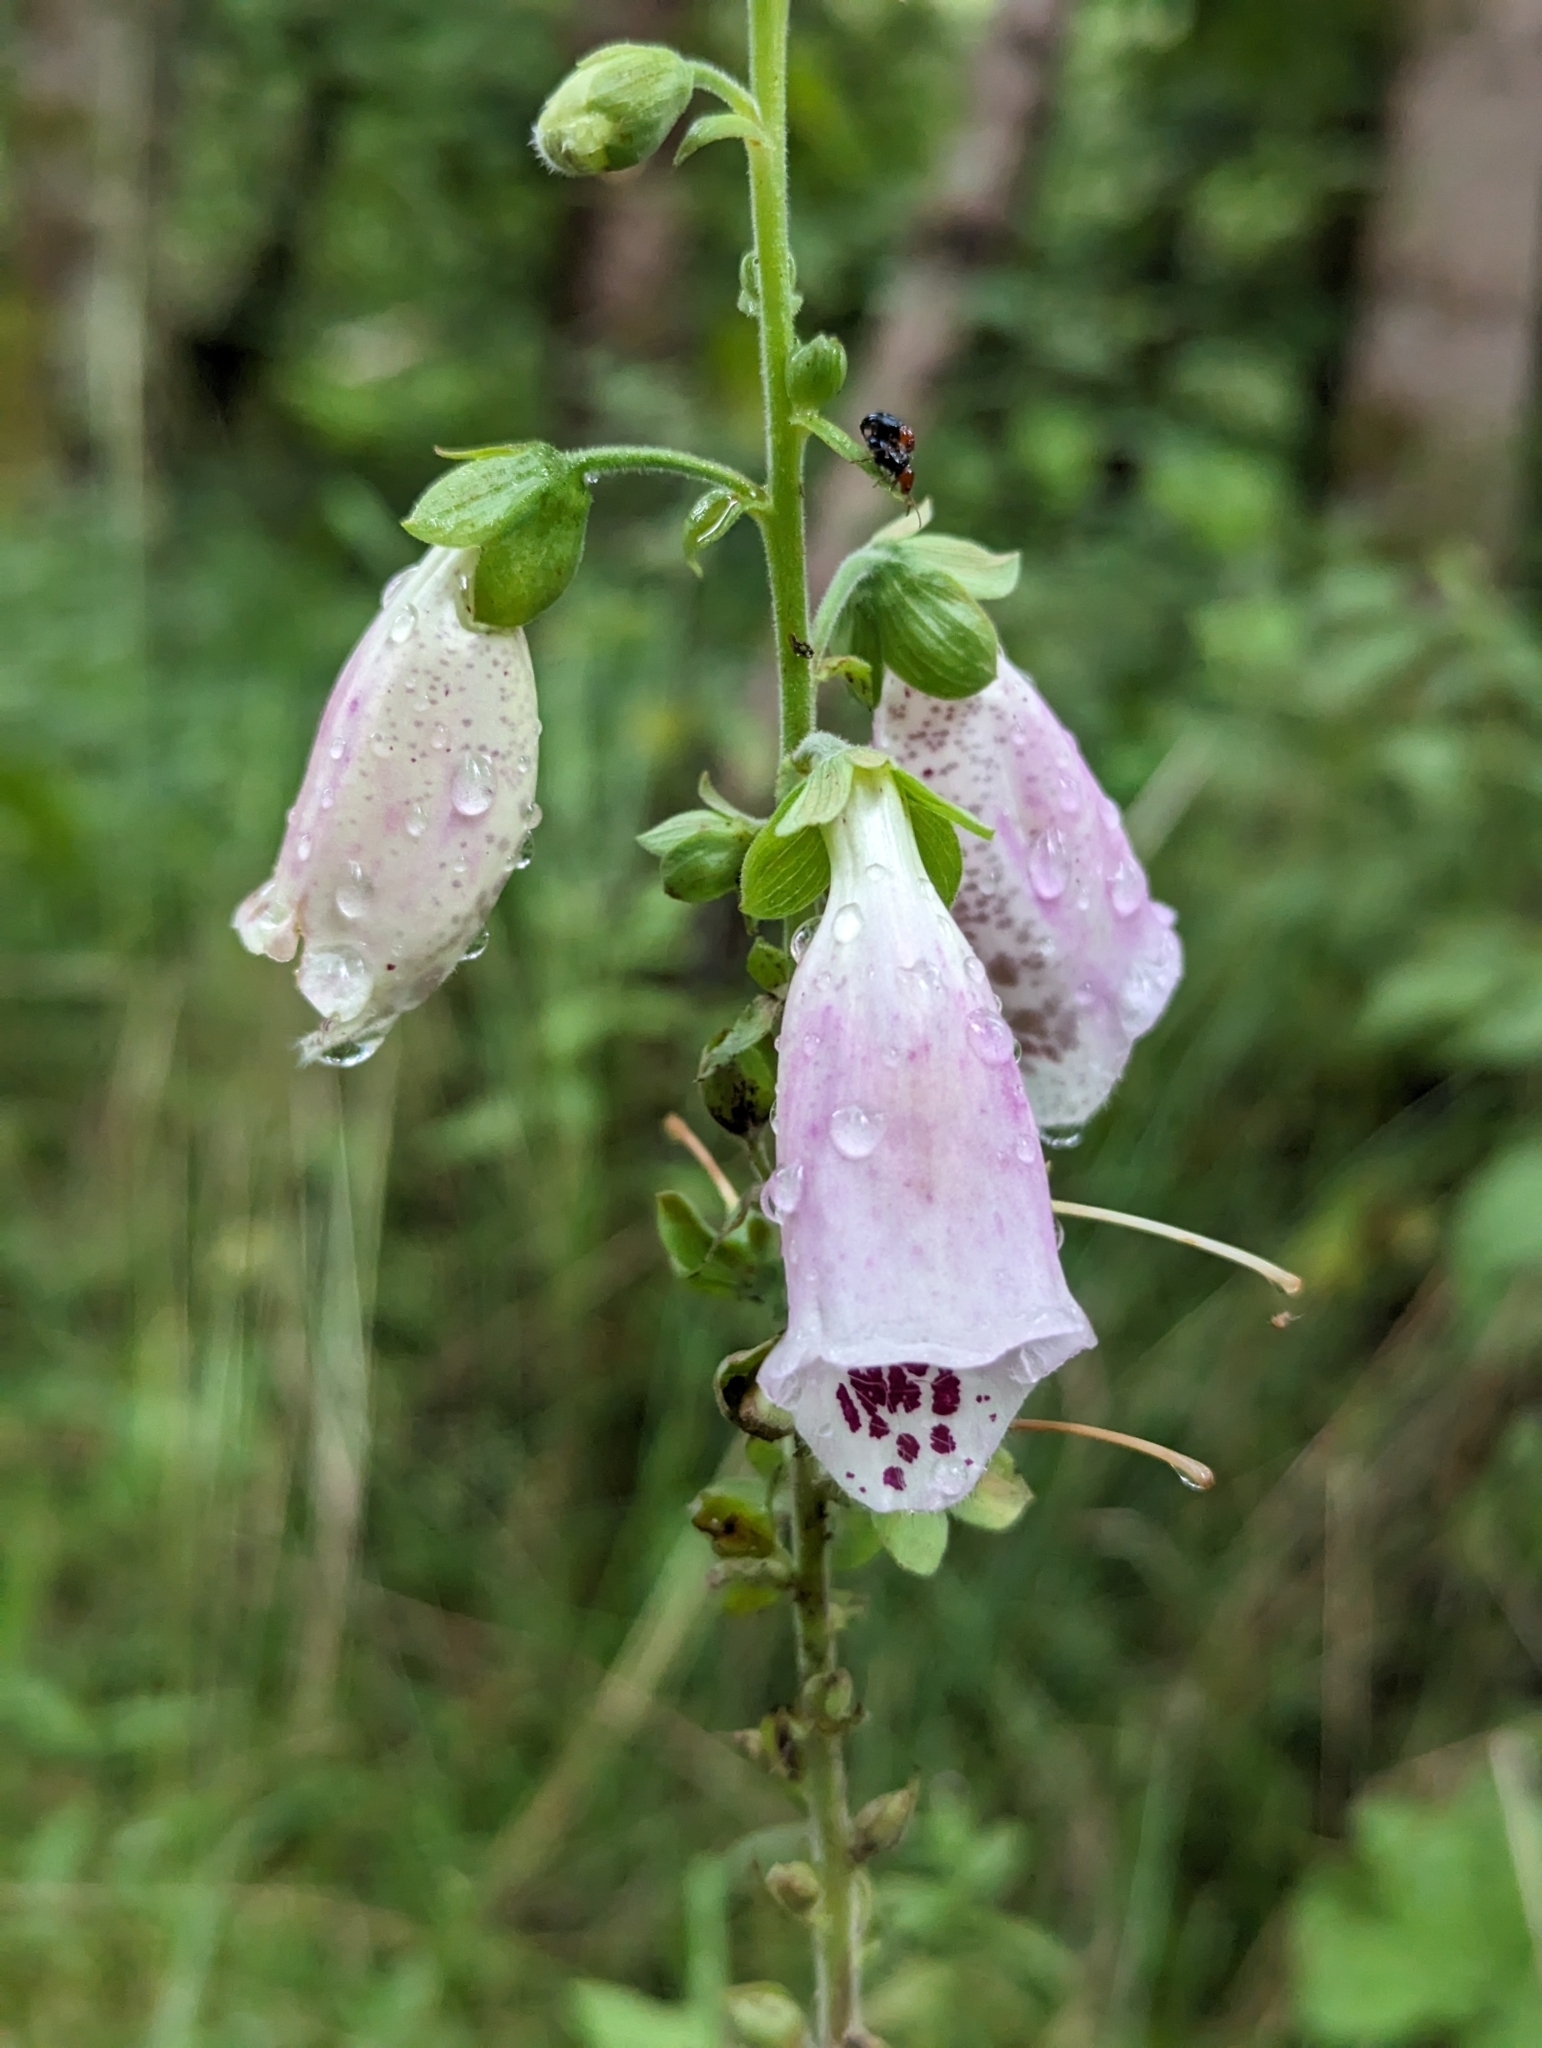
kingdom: Plantae
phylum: Tracheophyta
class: Magnoliopsida
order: Lamiales
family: Plantaginaceae
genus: Digitalis
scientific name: Digitalis purpurea
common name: Foxglove
